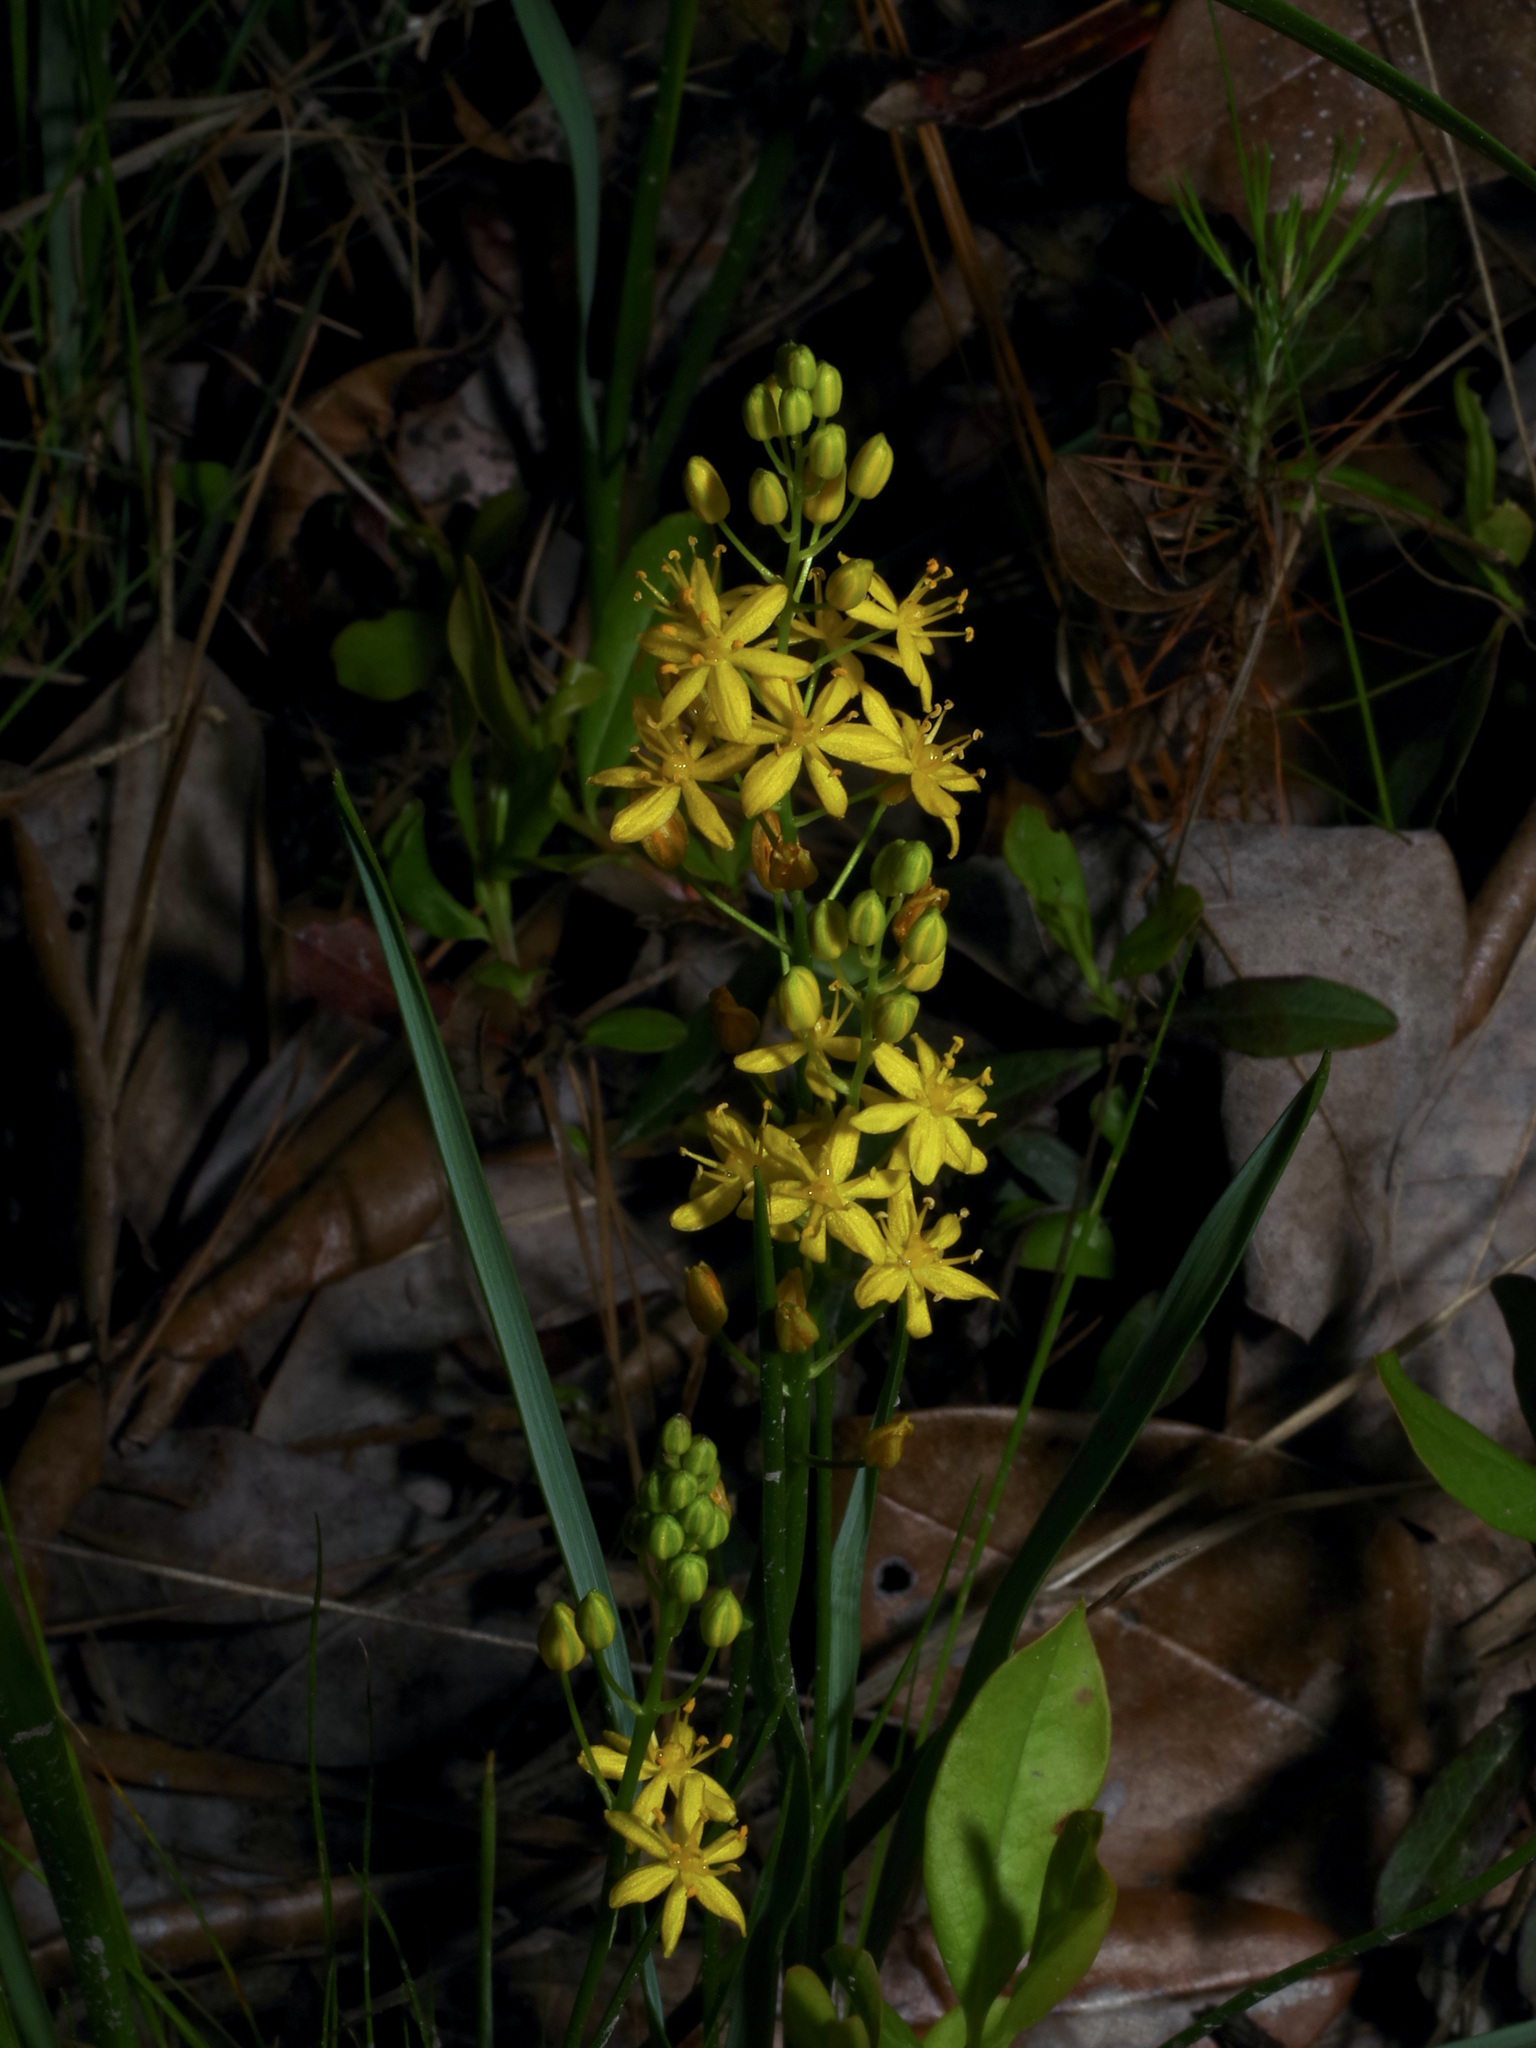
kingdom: Plantae
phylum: Tracheophyta
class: Liliopsida
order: Asparagales
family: Asparagaceae
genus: Schoenolirion
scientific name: Schoenolirion croceum
